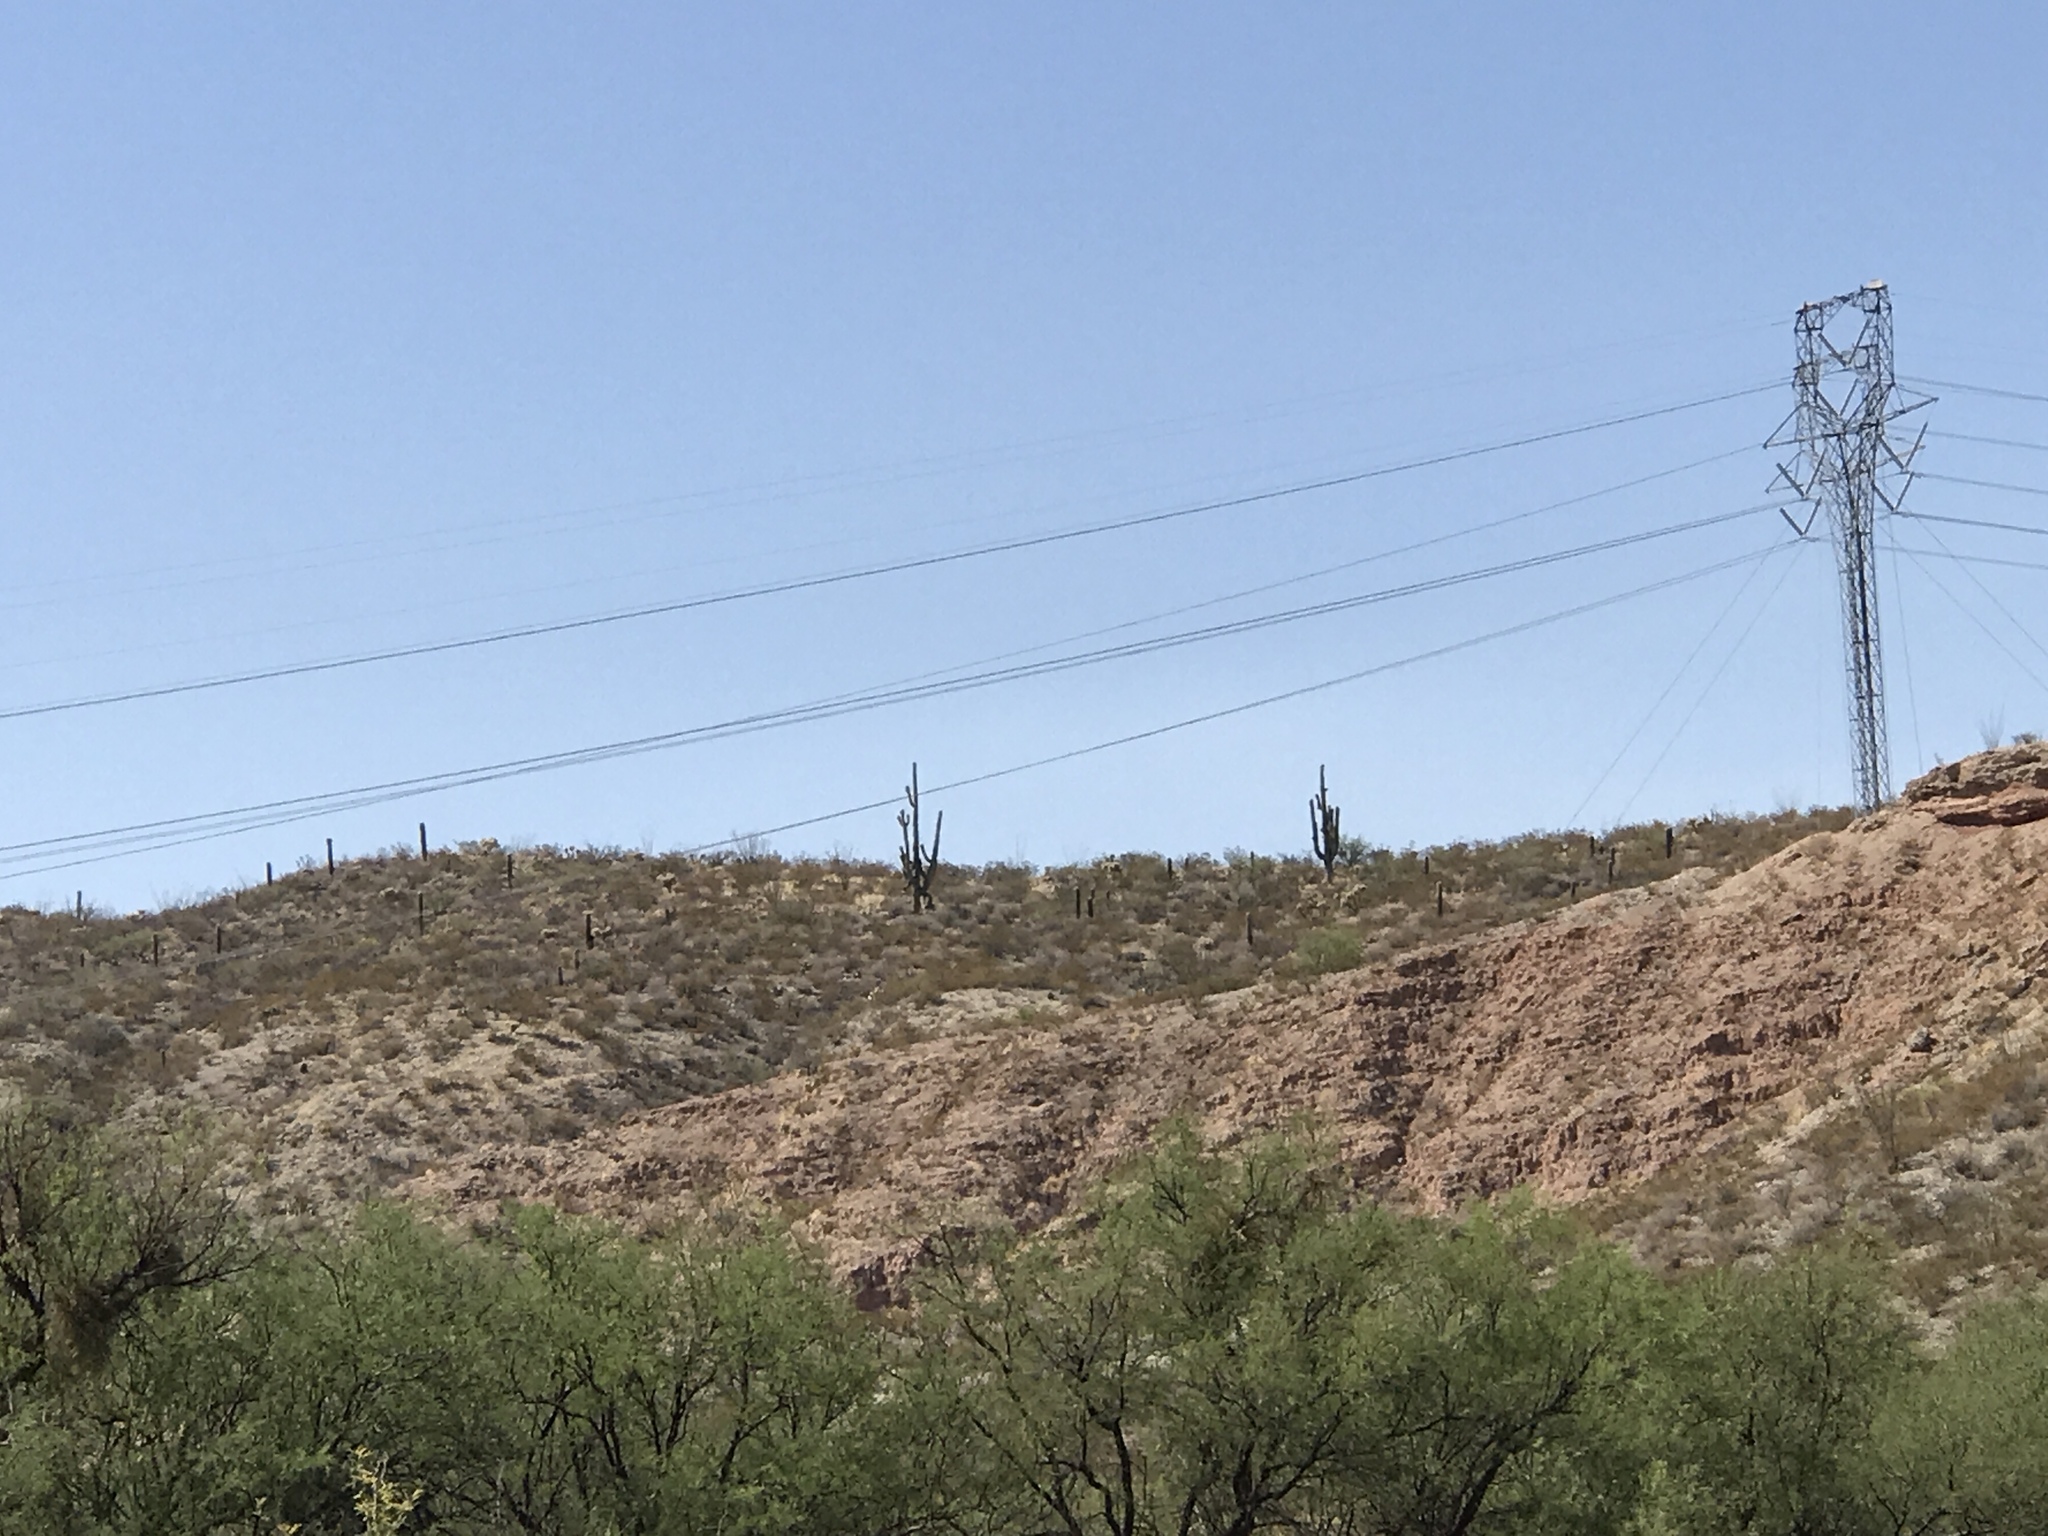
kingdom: Plantae
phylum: Tracheophyta
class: Magnoliopsida
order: Caryophyllales
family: Cactaceae
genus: Carnegiea
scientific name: Carnegiea gigantea
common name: Saguaro
